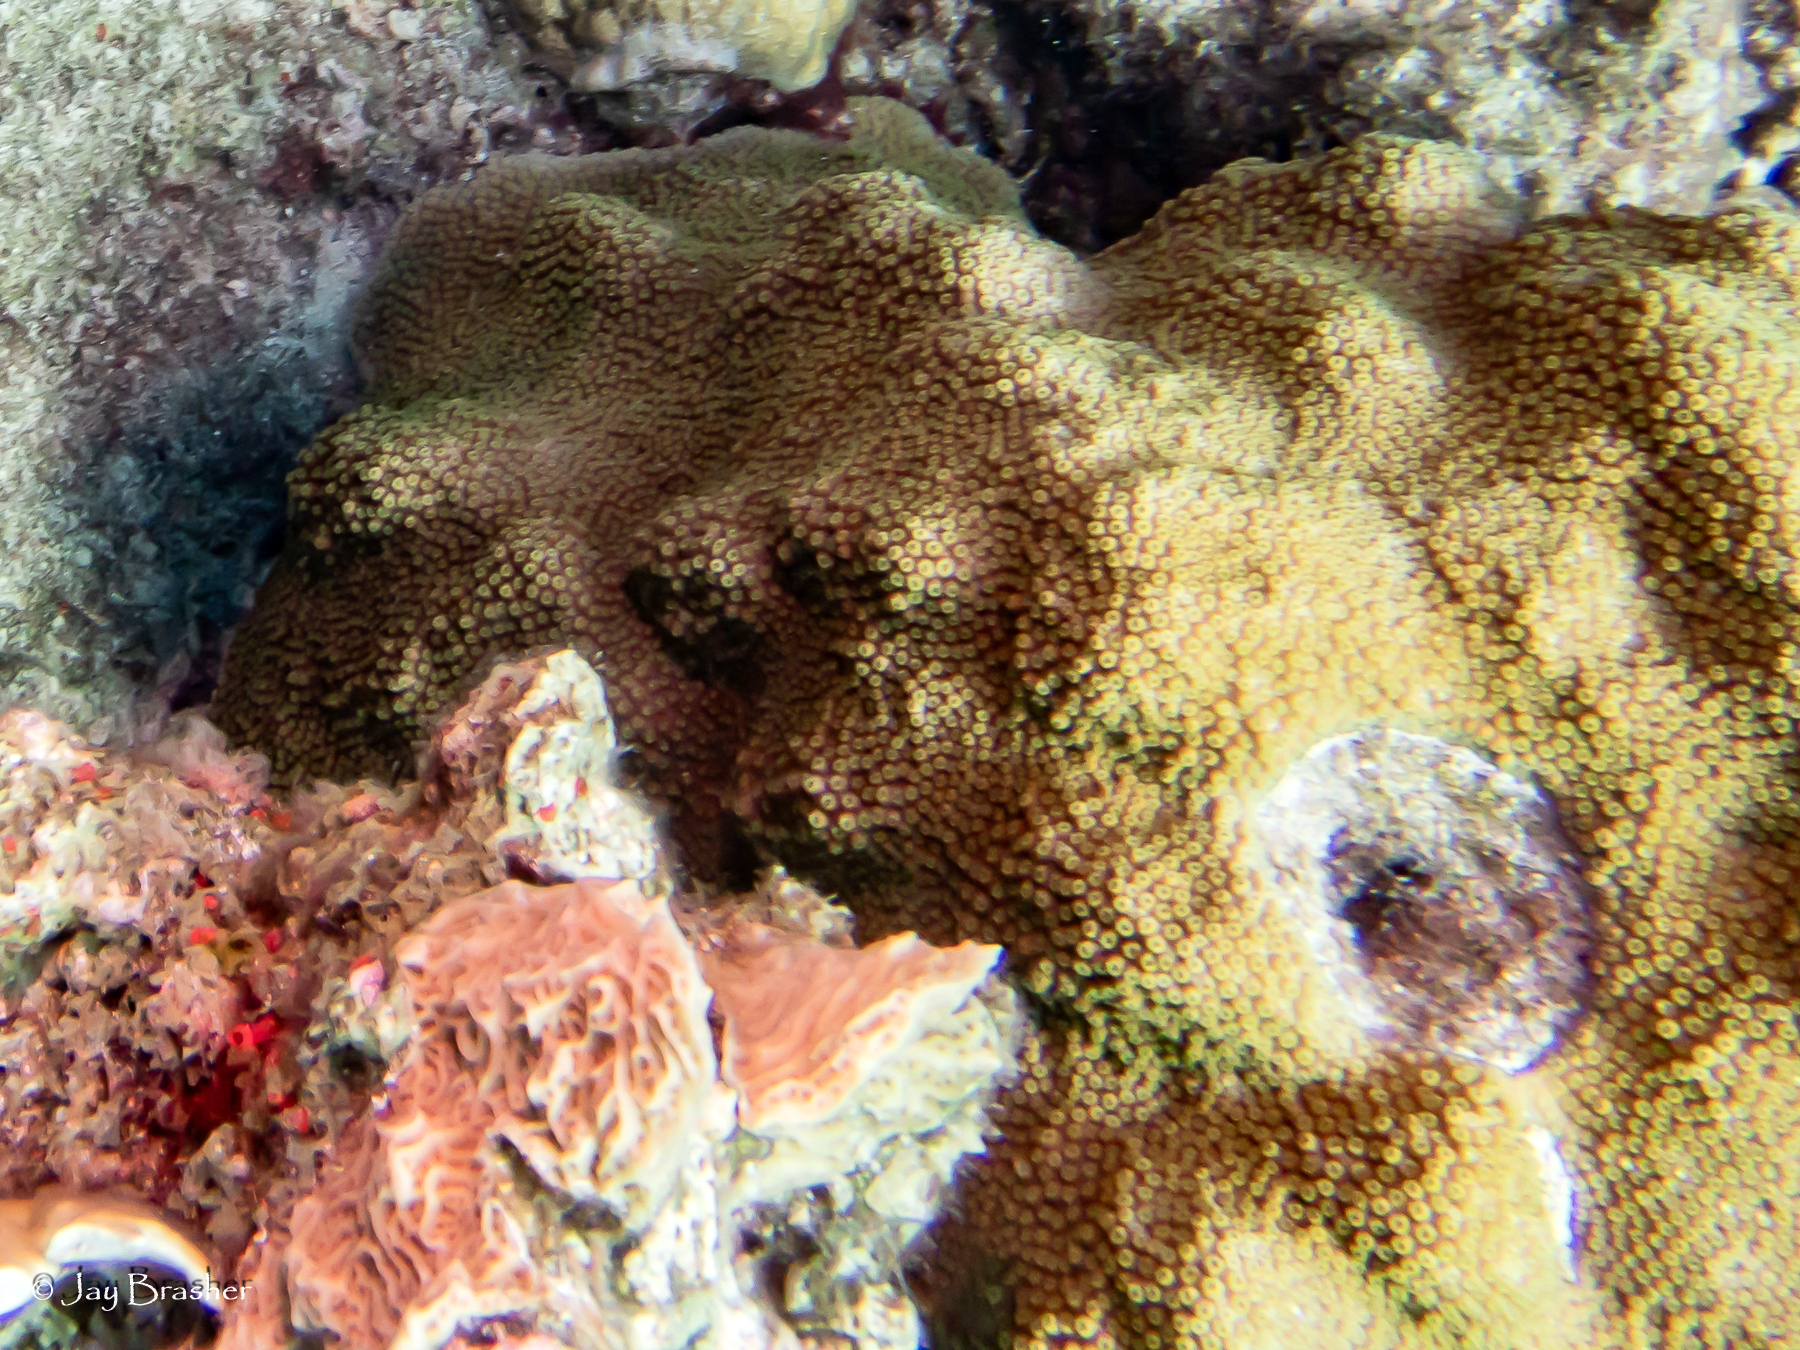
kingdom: Animalia
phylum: Porifera
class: Demospongiae
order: Clionaida
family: Clionaidae
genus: Cliothosa
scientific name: Cliothosa delitrix
